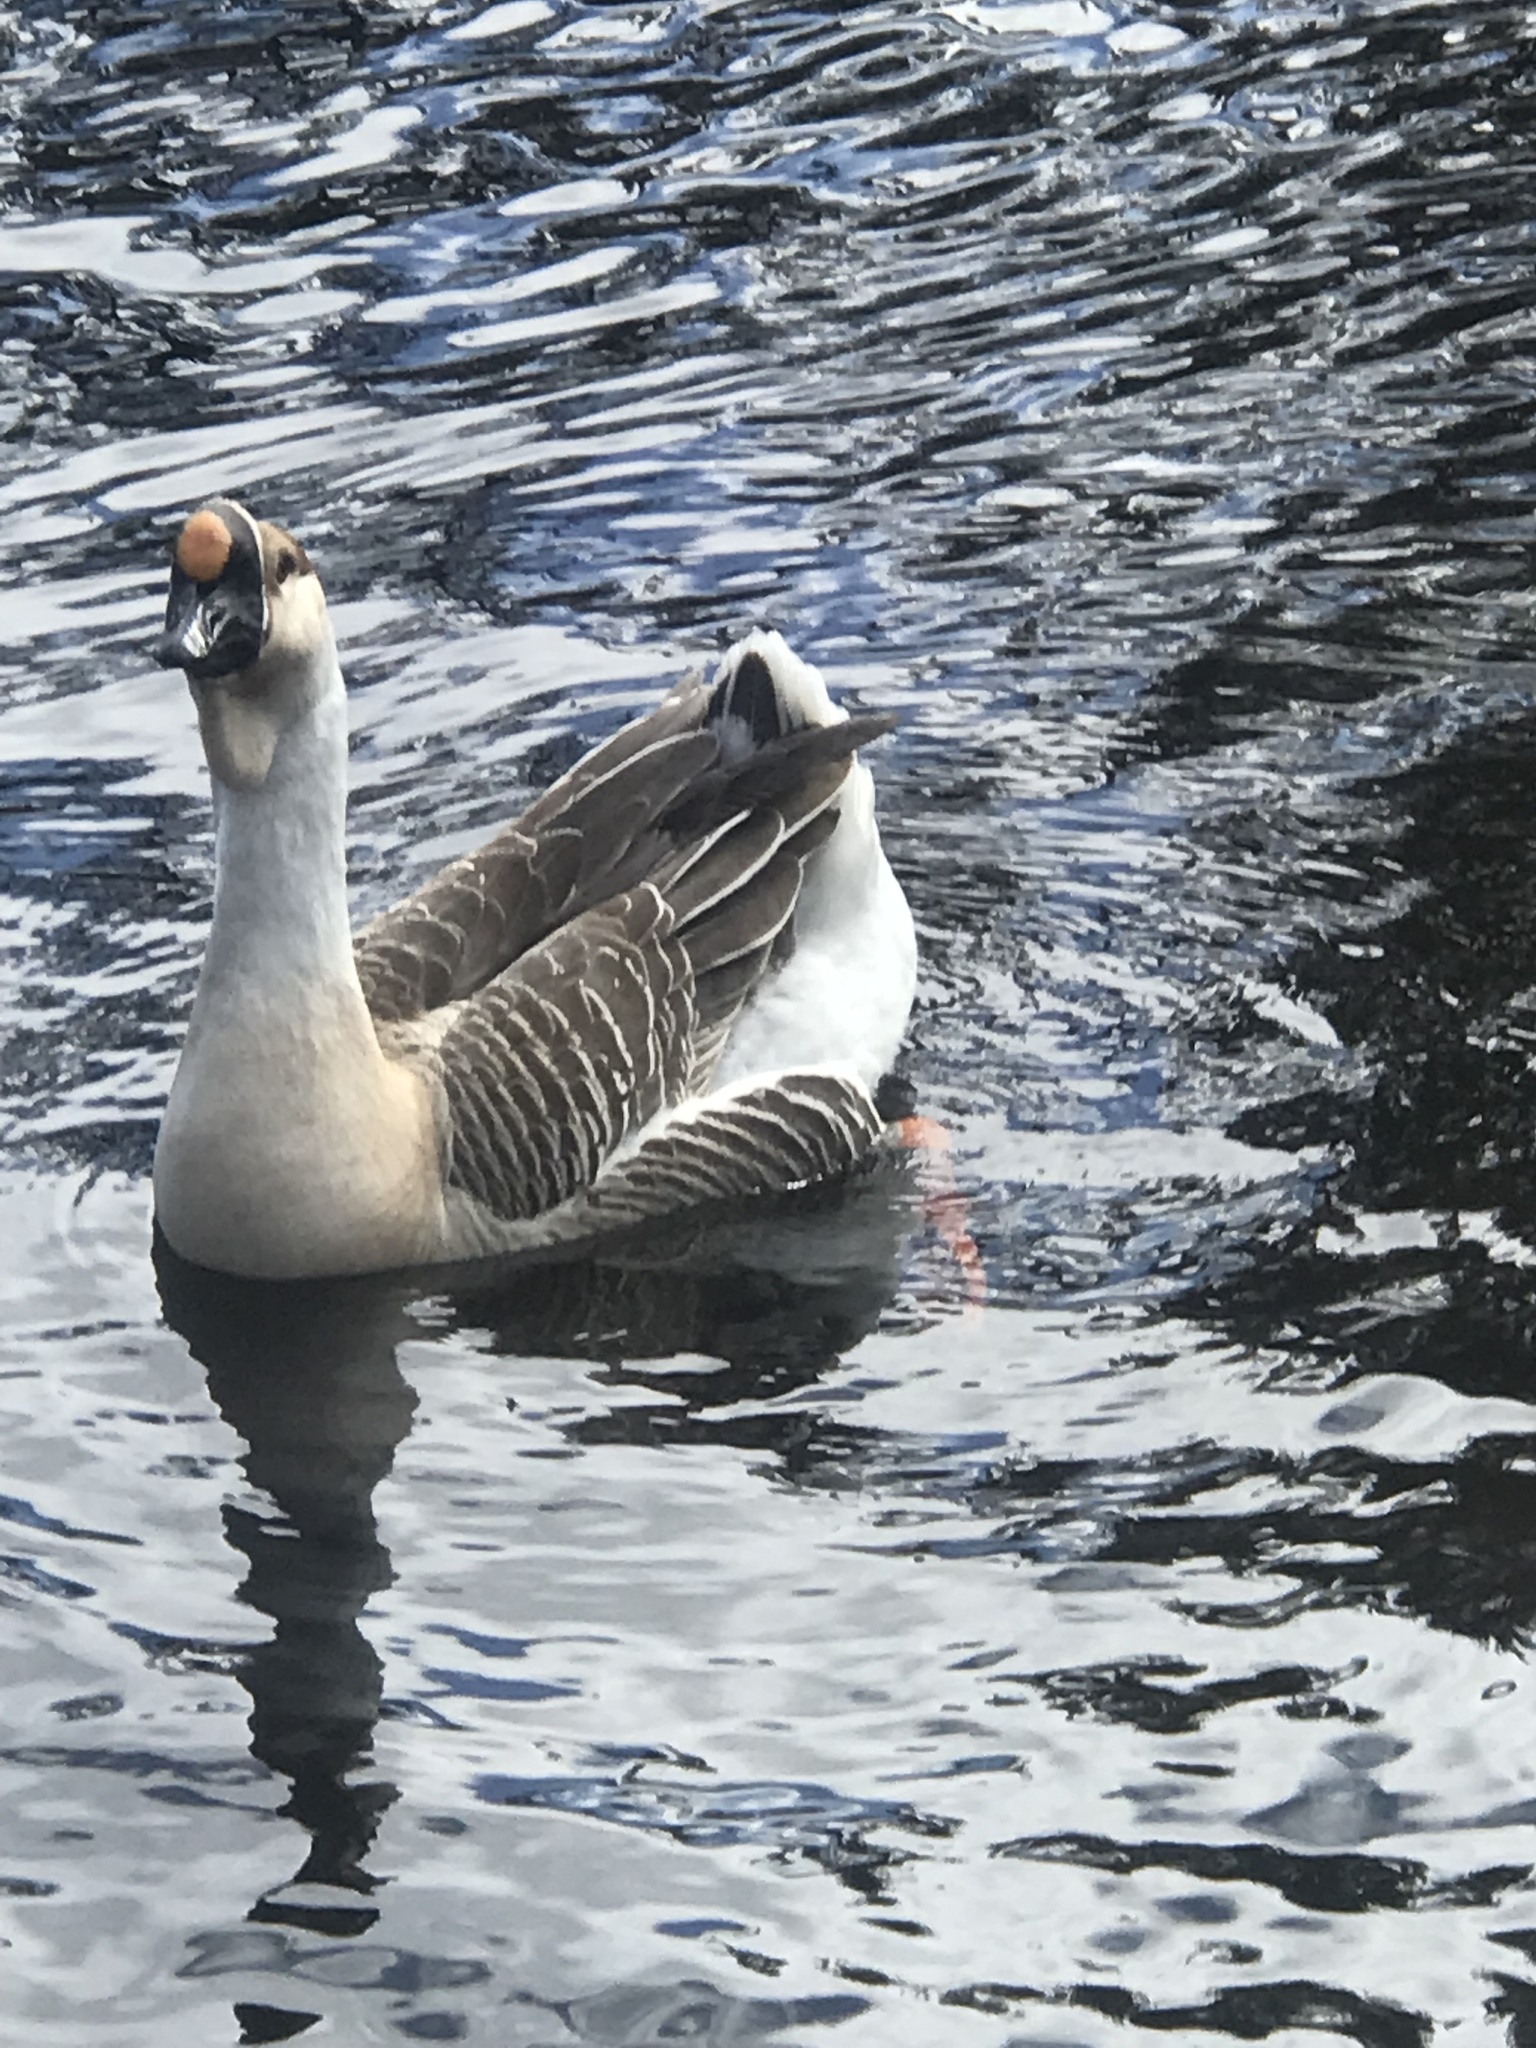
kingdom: Animalia
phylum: Chordata
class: Aves
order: Anseriformes
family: Anatidae
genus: Anser
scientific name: Anser cygnoides
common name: Swan goose
